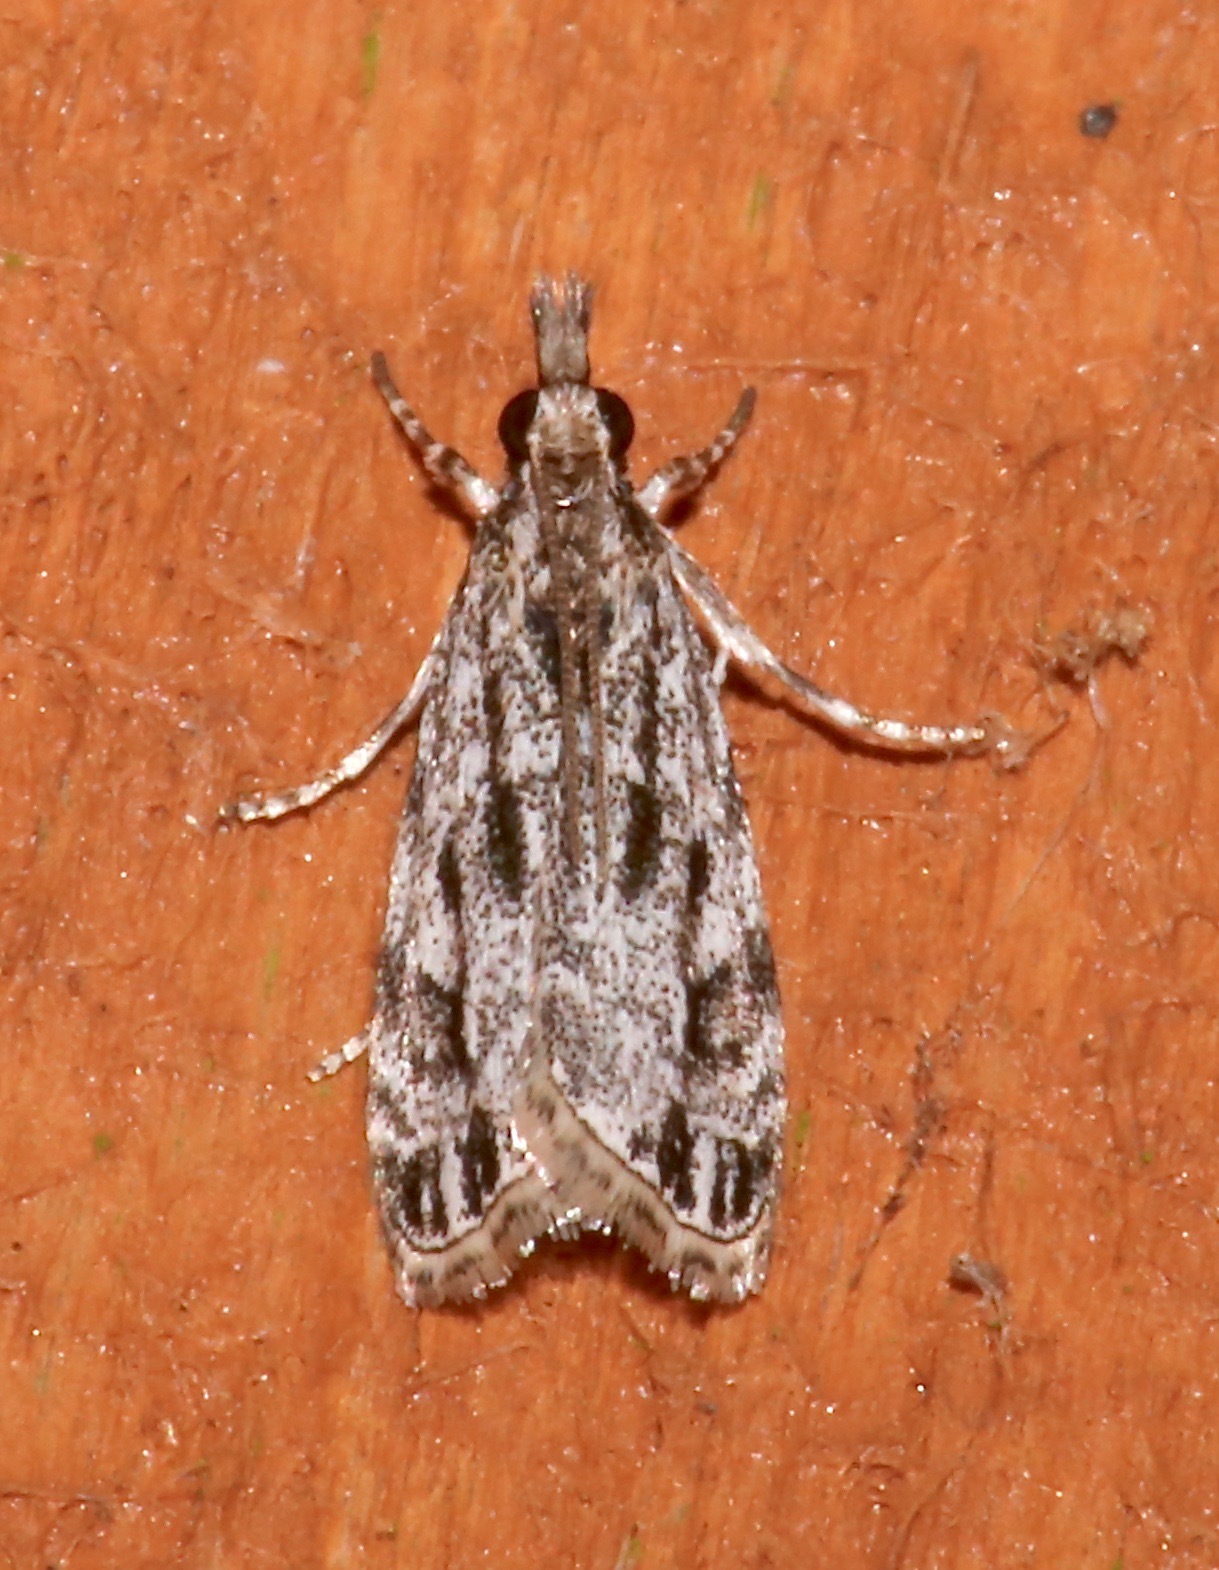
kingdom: Animalia
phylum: Arthropoda
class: Insecta
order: Lepidoptera
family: Crambidae
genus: Eudonia
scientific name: Eudonia strigalis
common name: Striped eudonia moth
